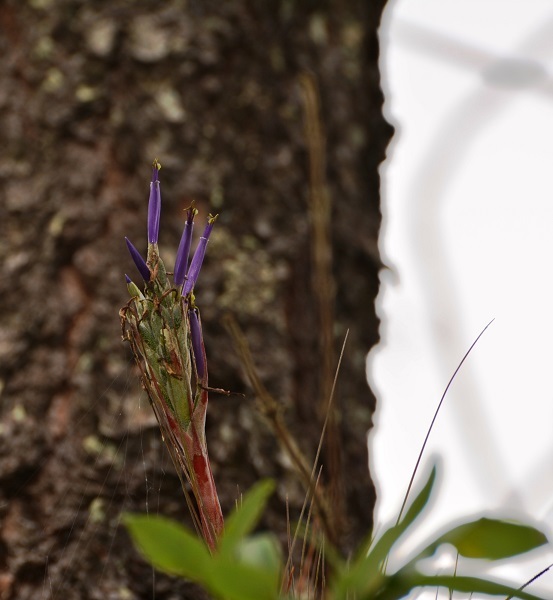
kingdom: Plantae
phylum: Tracheophyta
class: Liliopsida
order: Poales
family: Bromeliaceae
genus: Tillandsia
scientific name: Tillandsia juncea
